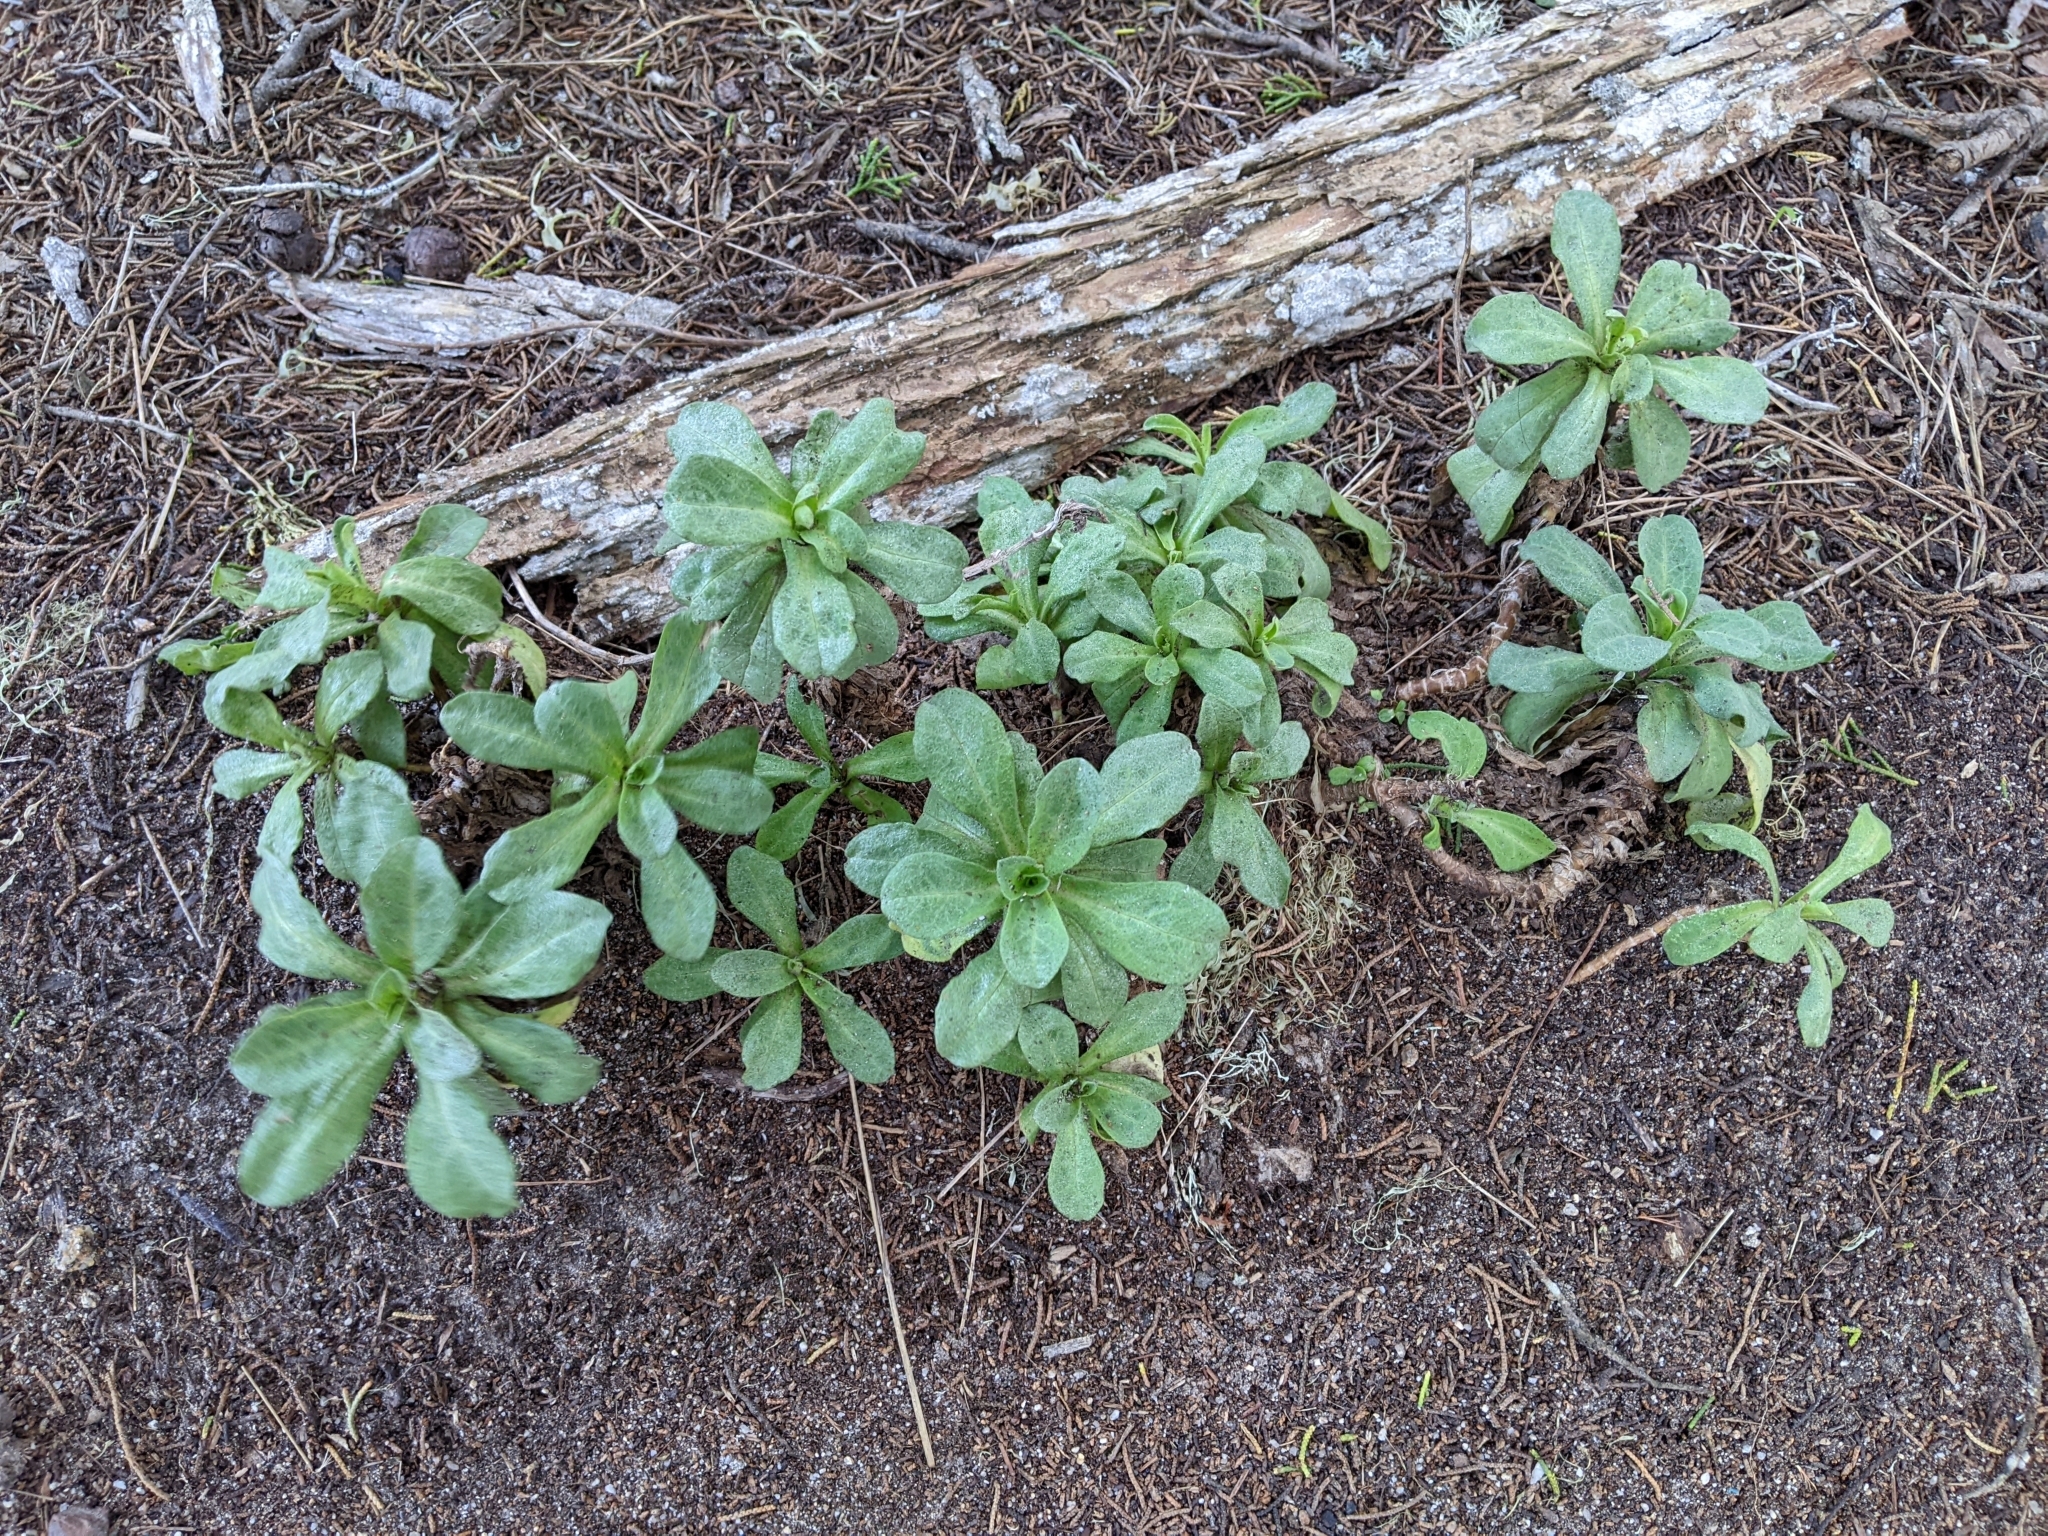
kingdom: Plantae
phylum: Tracheophyta
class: Magnoliopsida
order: Asterales
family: Asteraceae
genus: Erigeron
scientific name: Erigeron glaucus
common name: Seaside daisy
